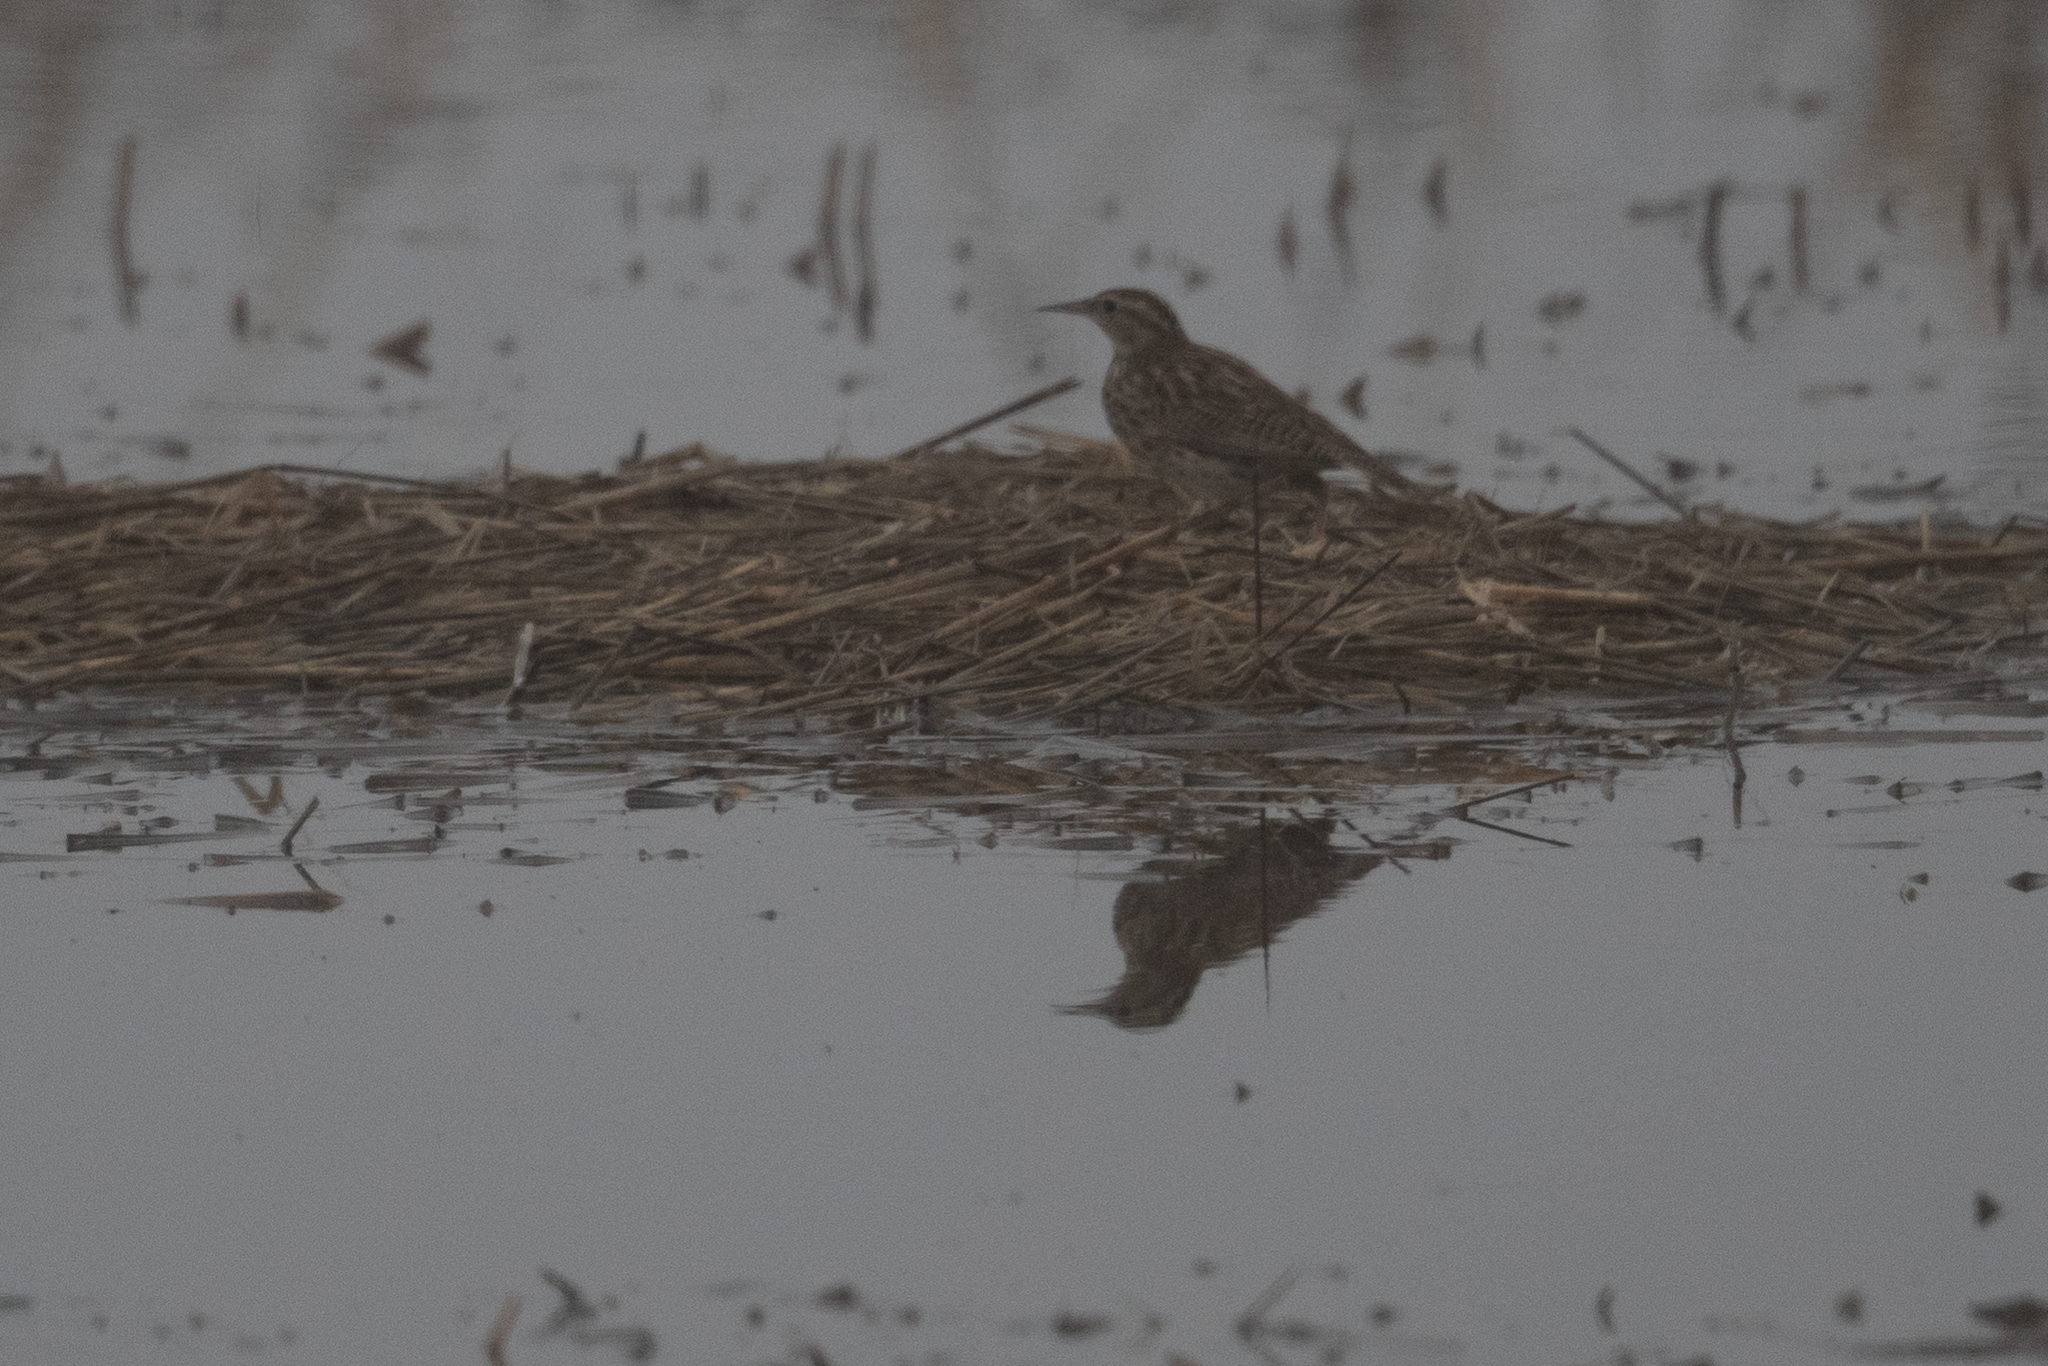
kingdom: Animalia
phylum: Chordata
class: Aves
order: Passeriformes
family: Icteridae
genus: Sturnella
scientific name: Sturnella neglecta
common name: Western meadowlark
